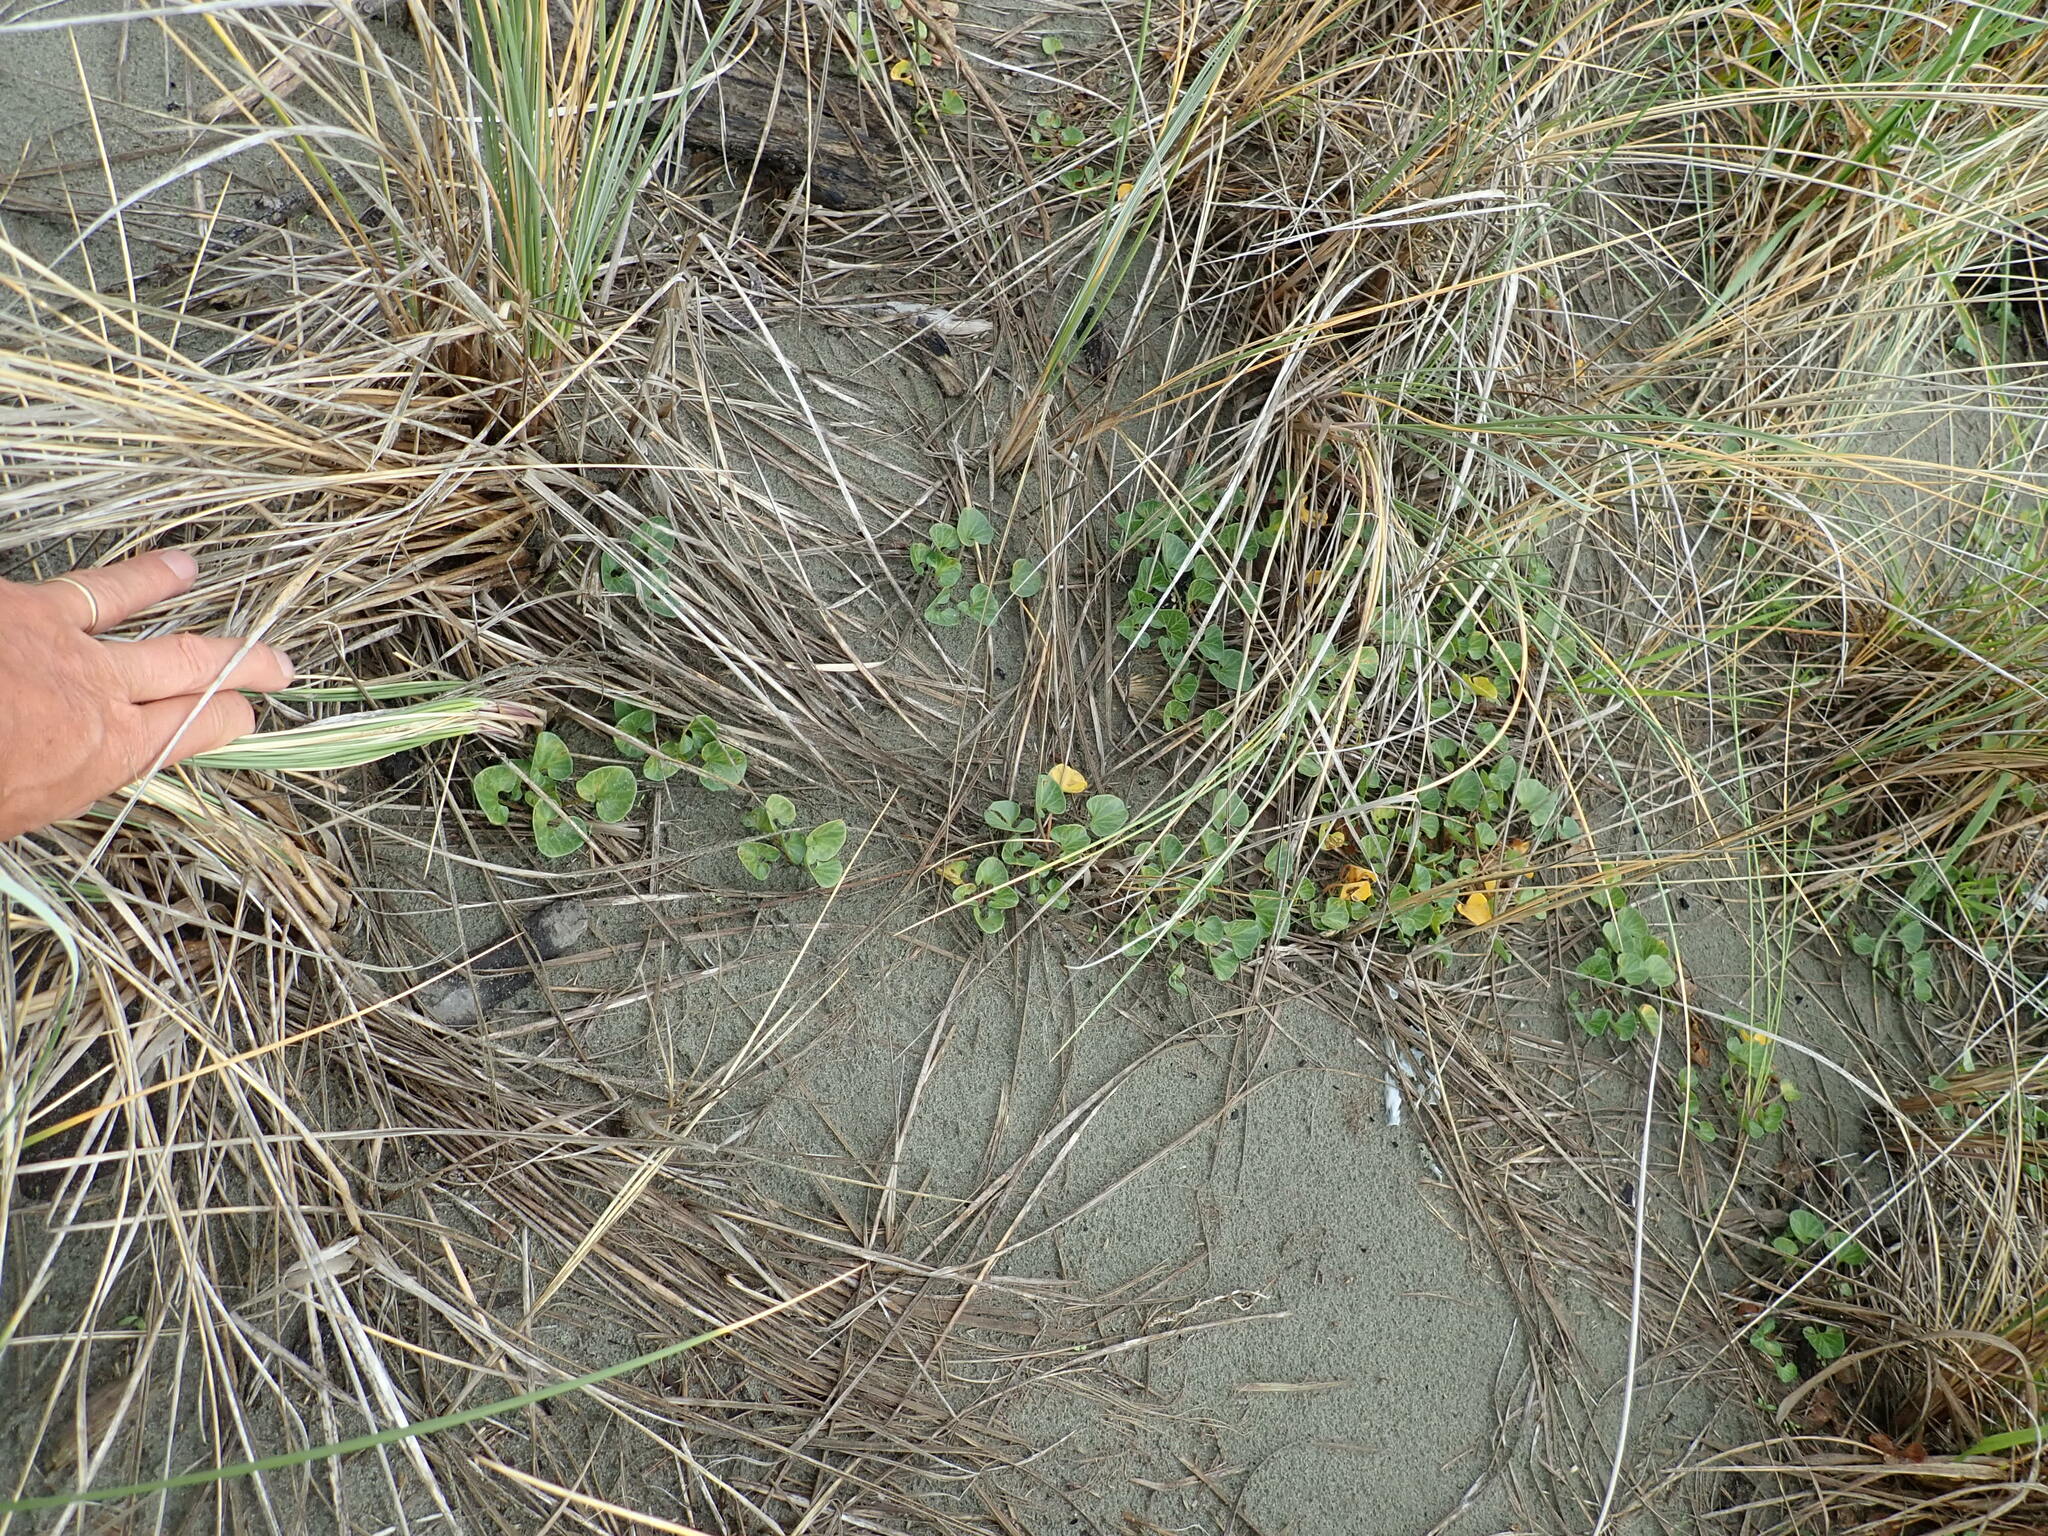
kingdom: Plantae
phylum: Tracheophyta
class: Magnoliopsida
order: Solanales
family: Convolvulaceae
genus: Calystegia
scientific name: Calystegia soldanella
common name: Sea bindweed
